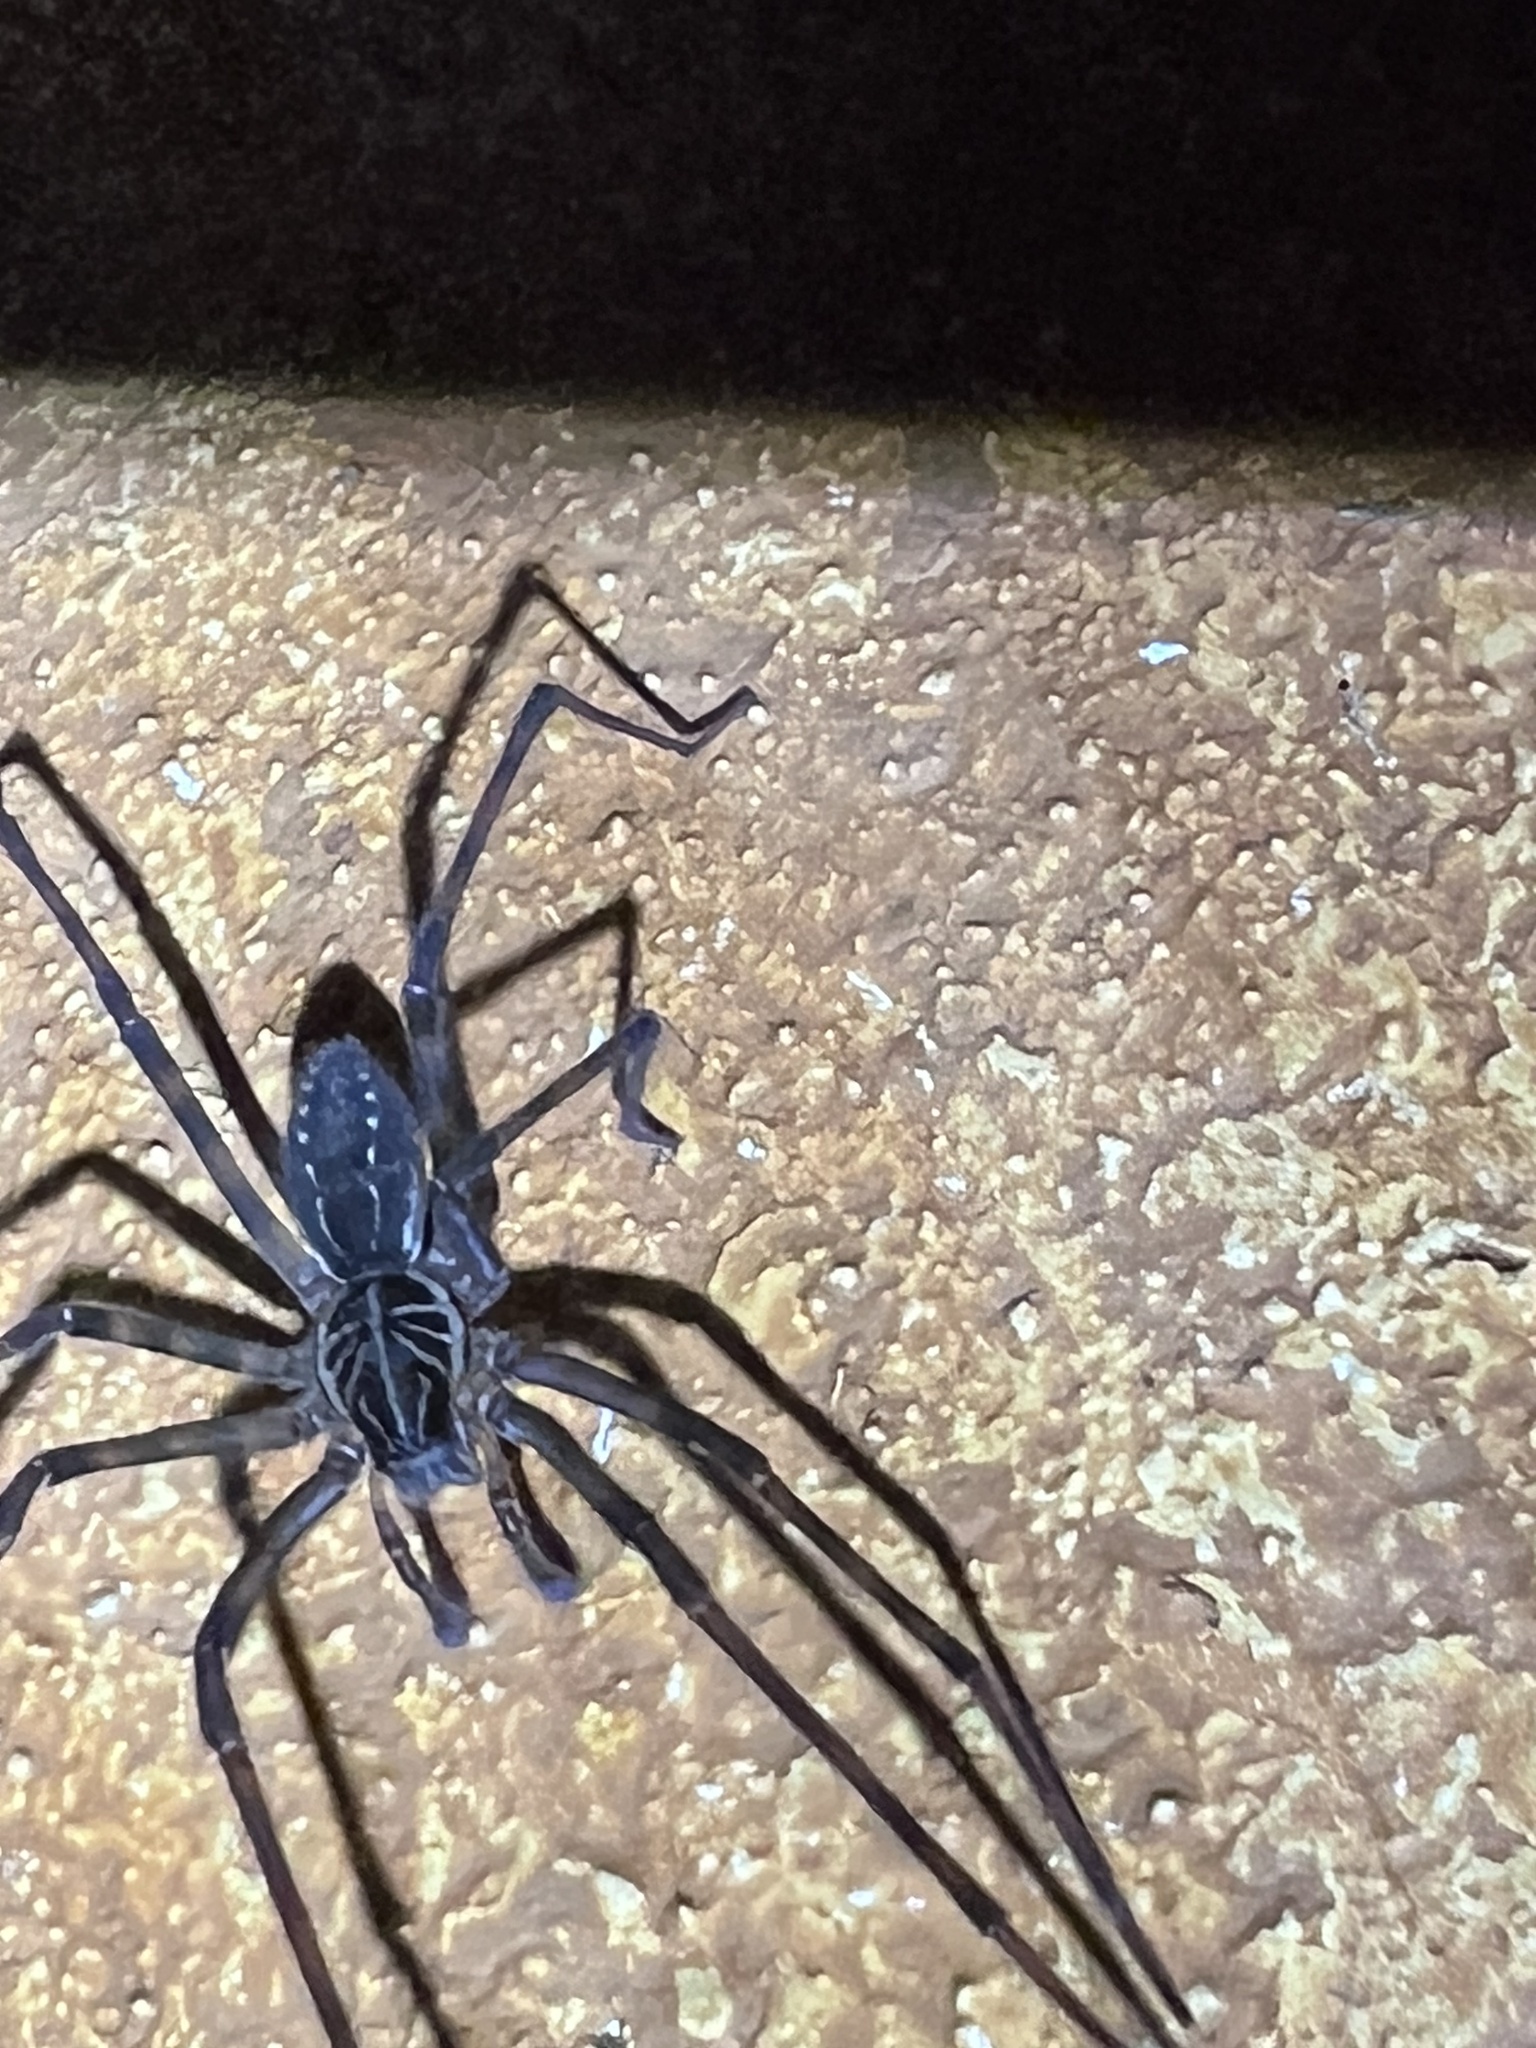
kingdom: Animalia
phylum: Arthropoda
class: Arachnida
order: Araneae
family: Zoropsidae
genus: Tengella
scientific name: Tengella radiata
